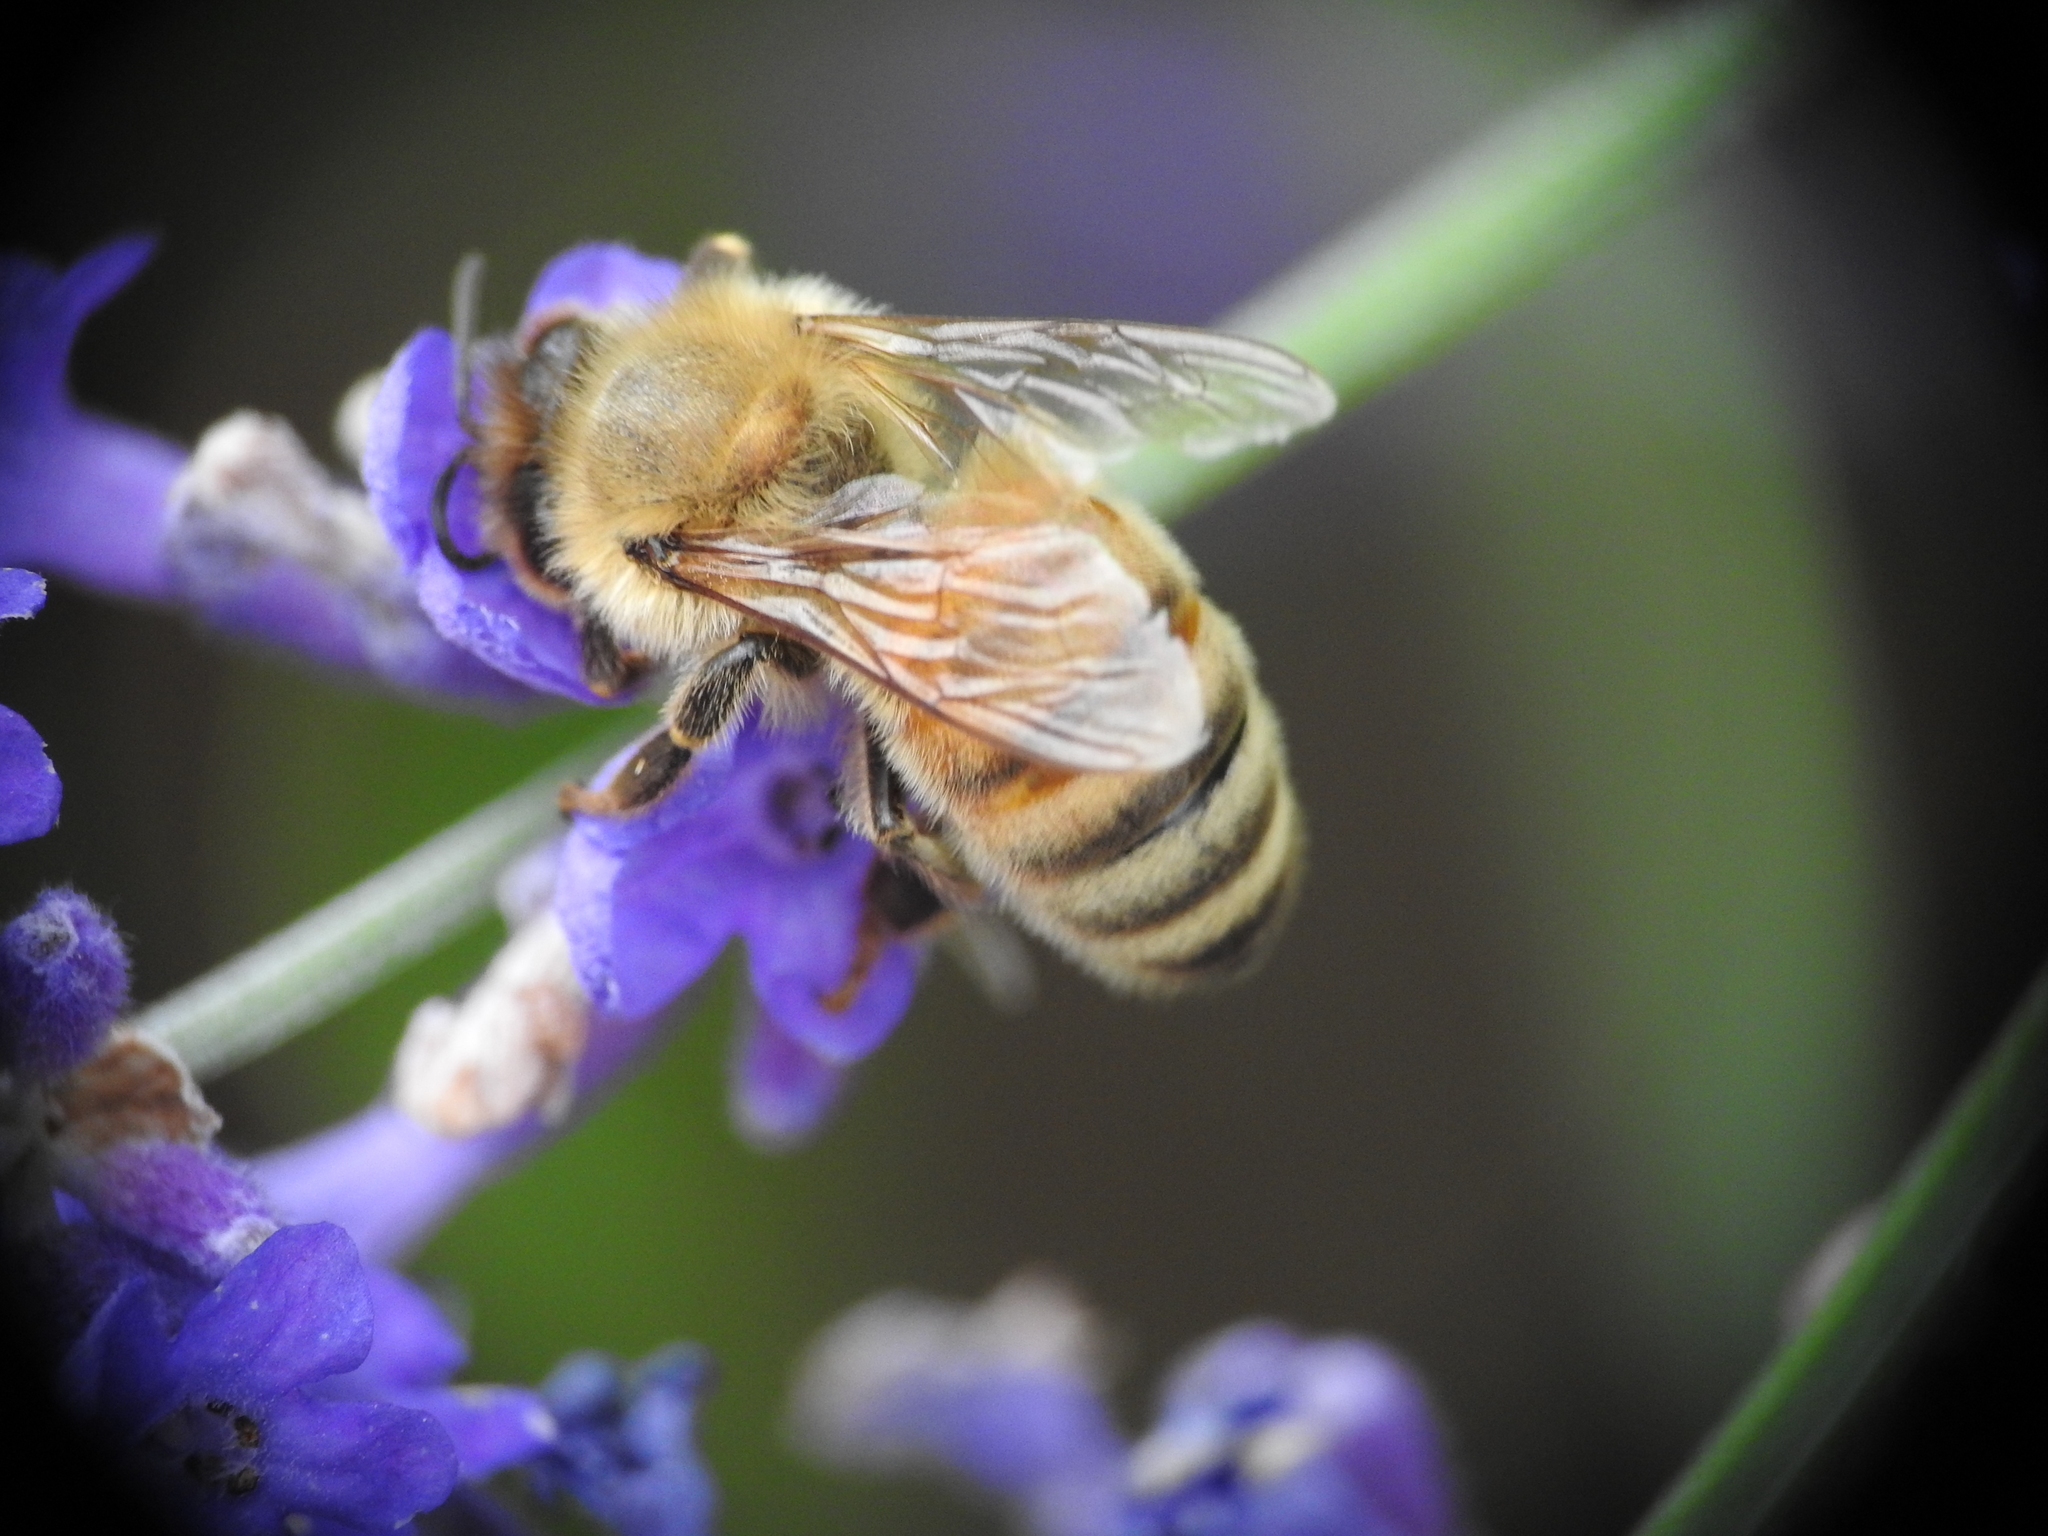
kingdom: Animalia
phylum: Arthropoda
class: Insecta
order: Hymenoptera
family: Apidae
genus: Apis
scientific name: Apis mellifera
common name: Honey bee
